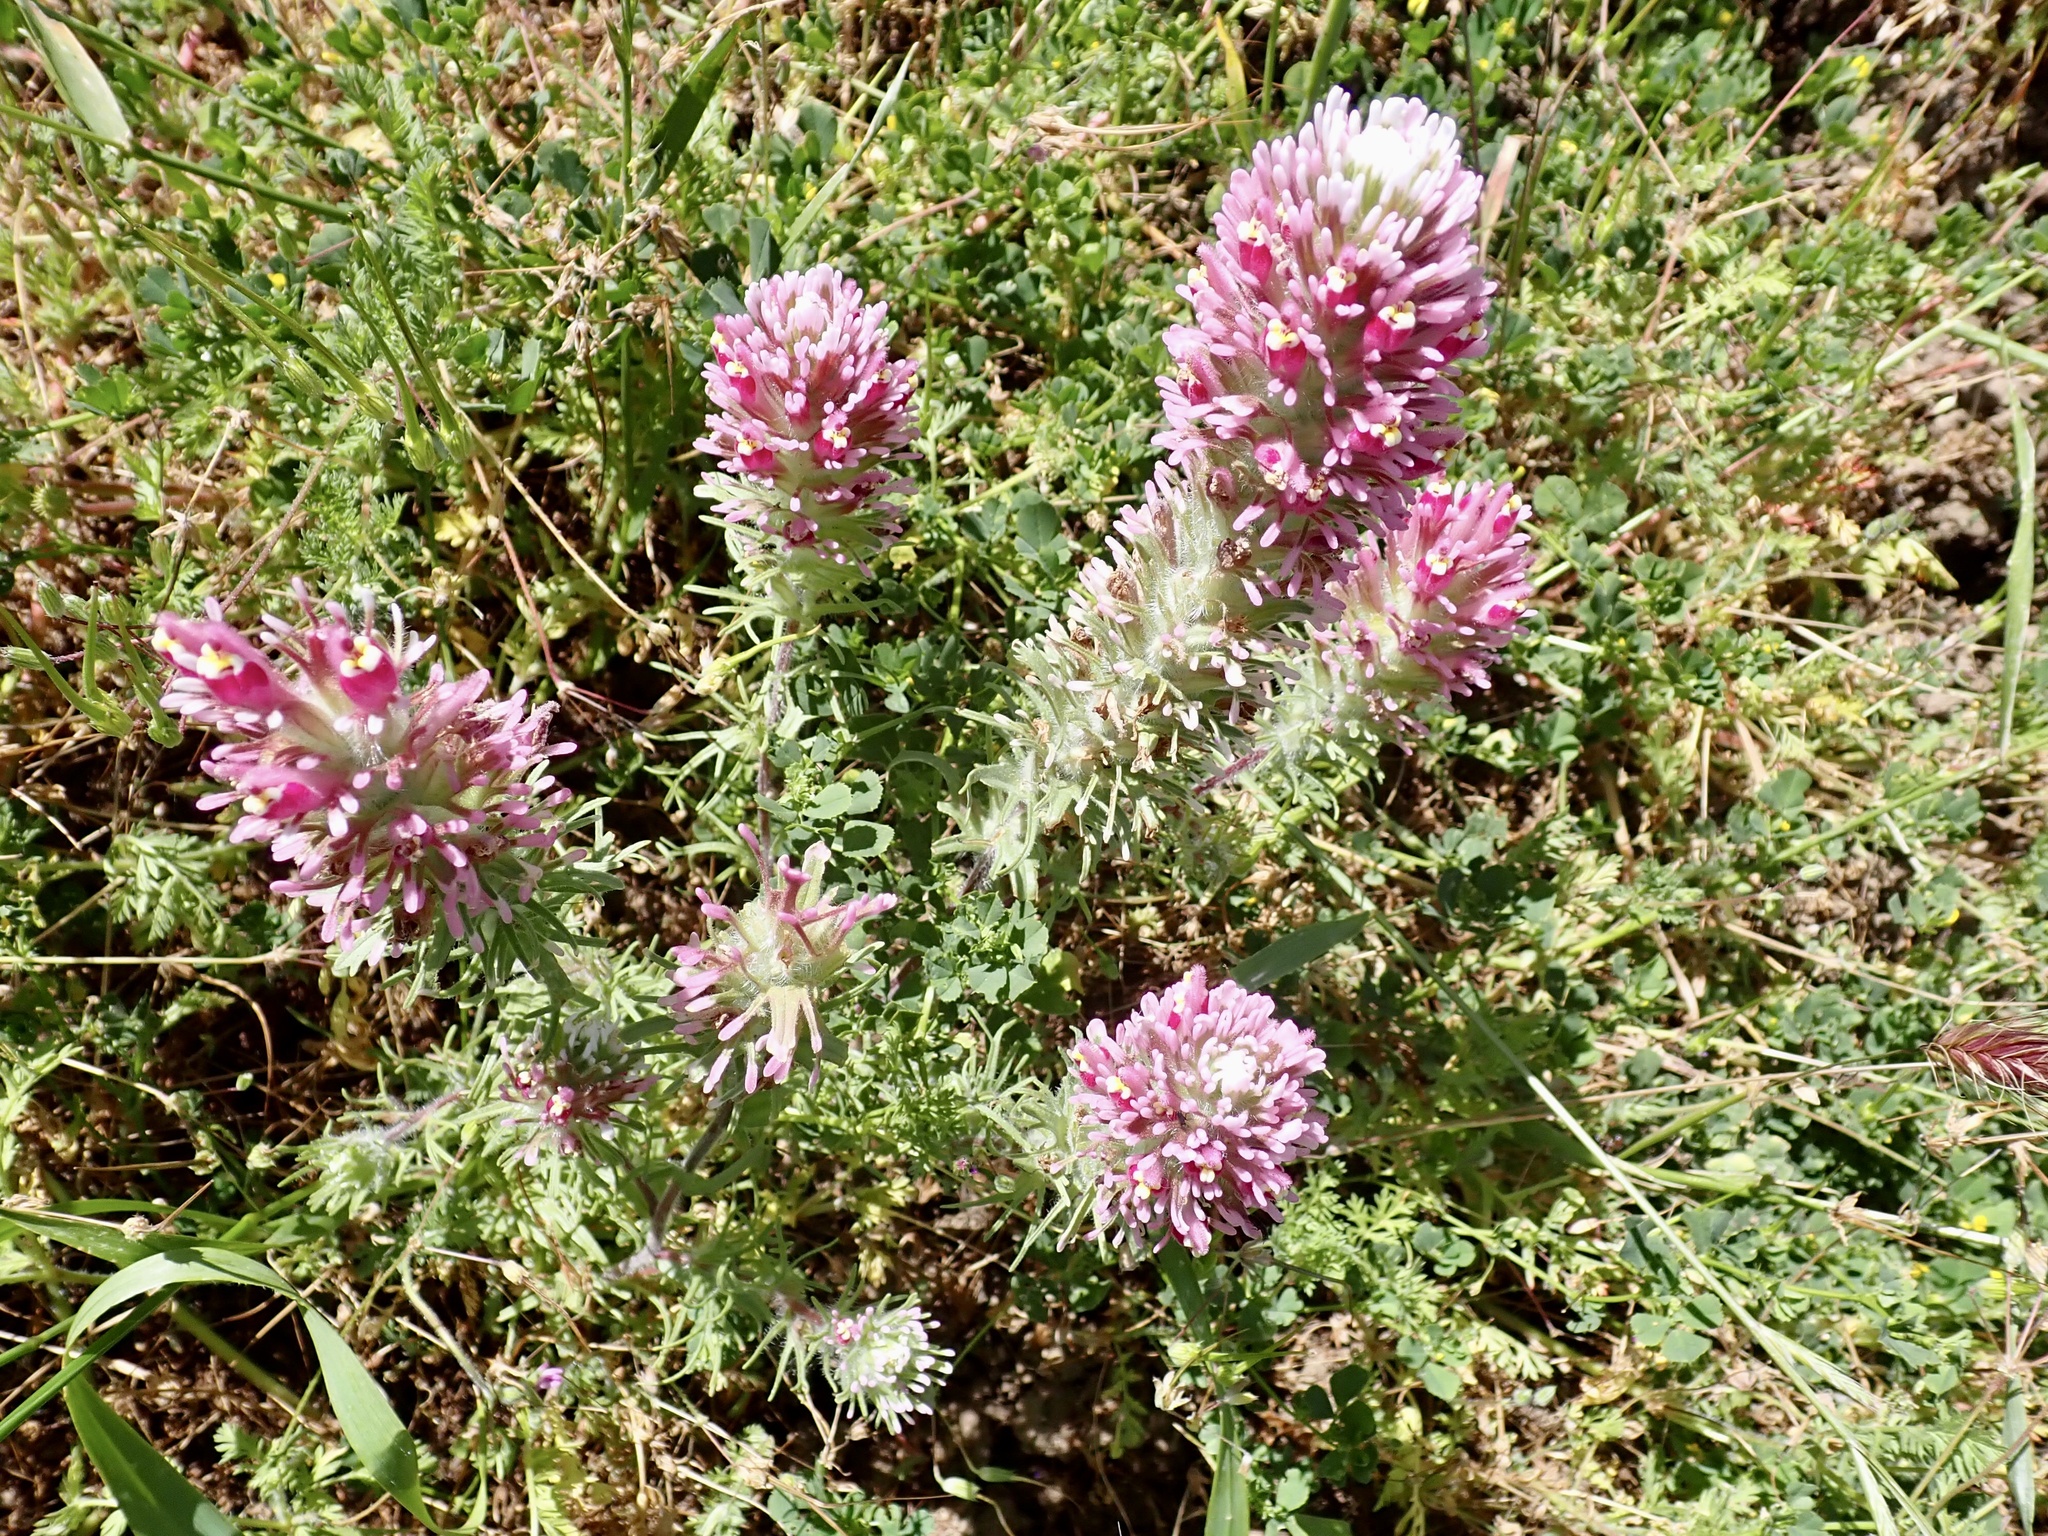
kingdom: Plantae
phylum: Tracheophyta
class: Magnoliopsida
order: Lamiales
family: Orobanchaceae
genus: Castilleja
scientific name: Castilleja exserta
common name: Purple owl-clover
